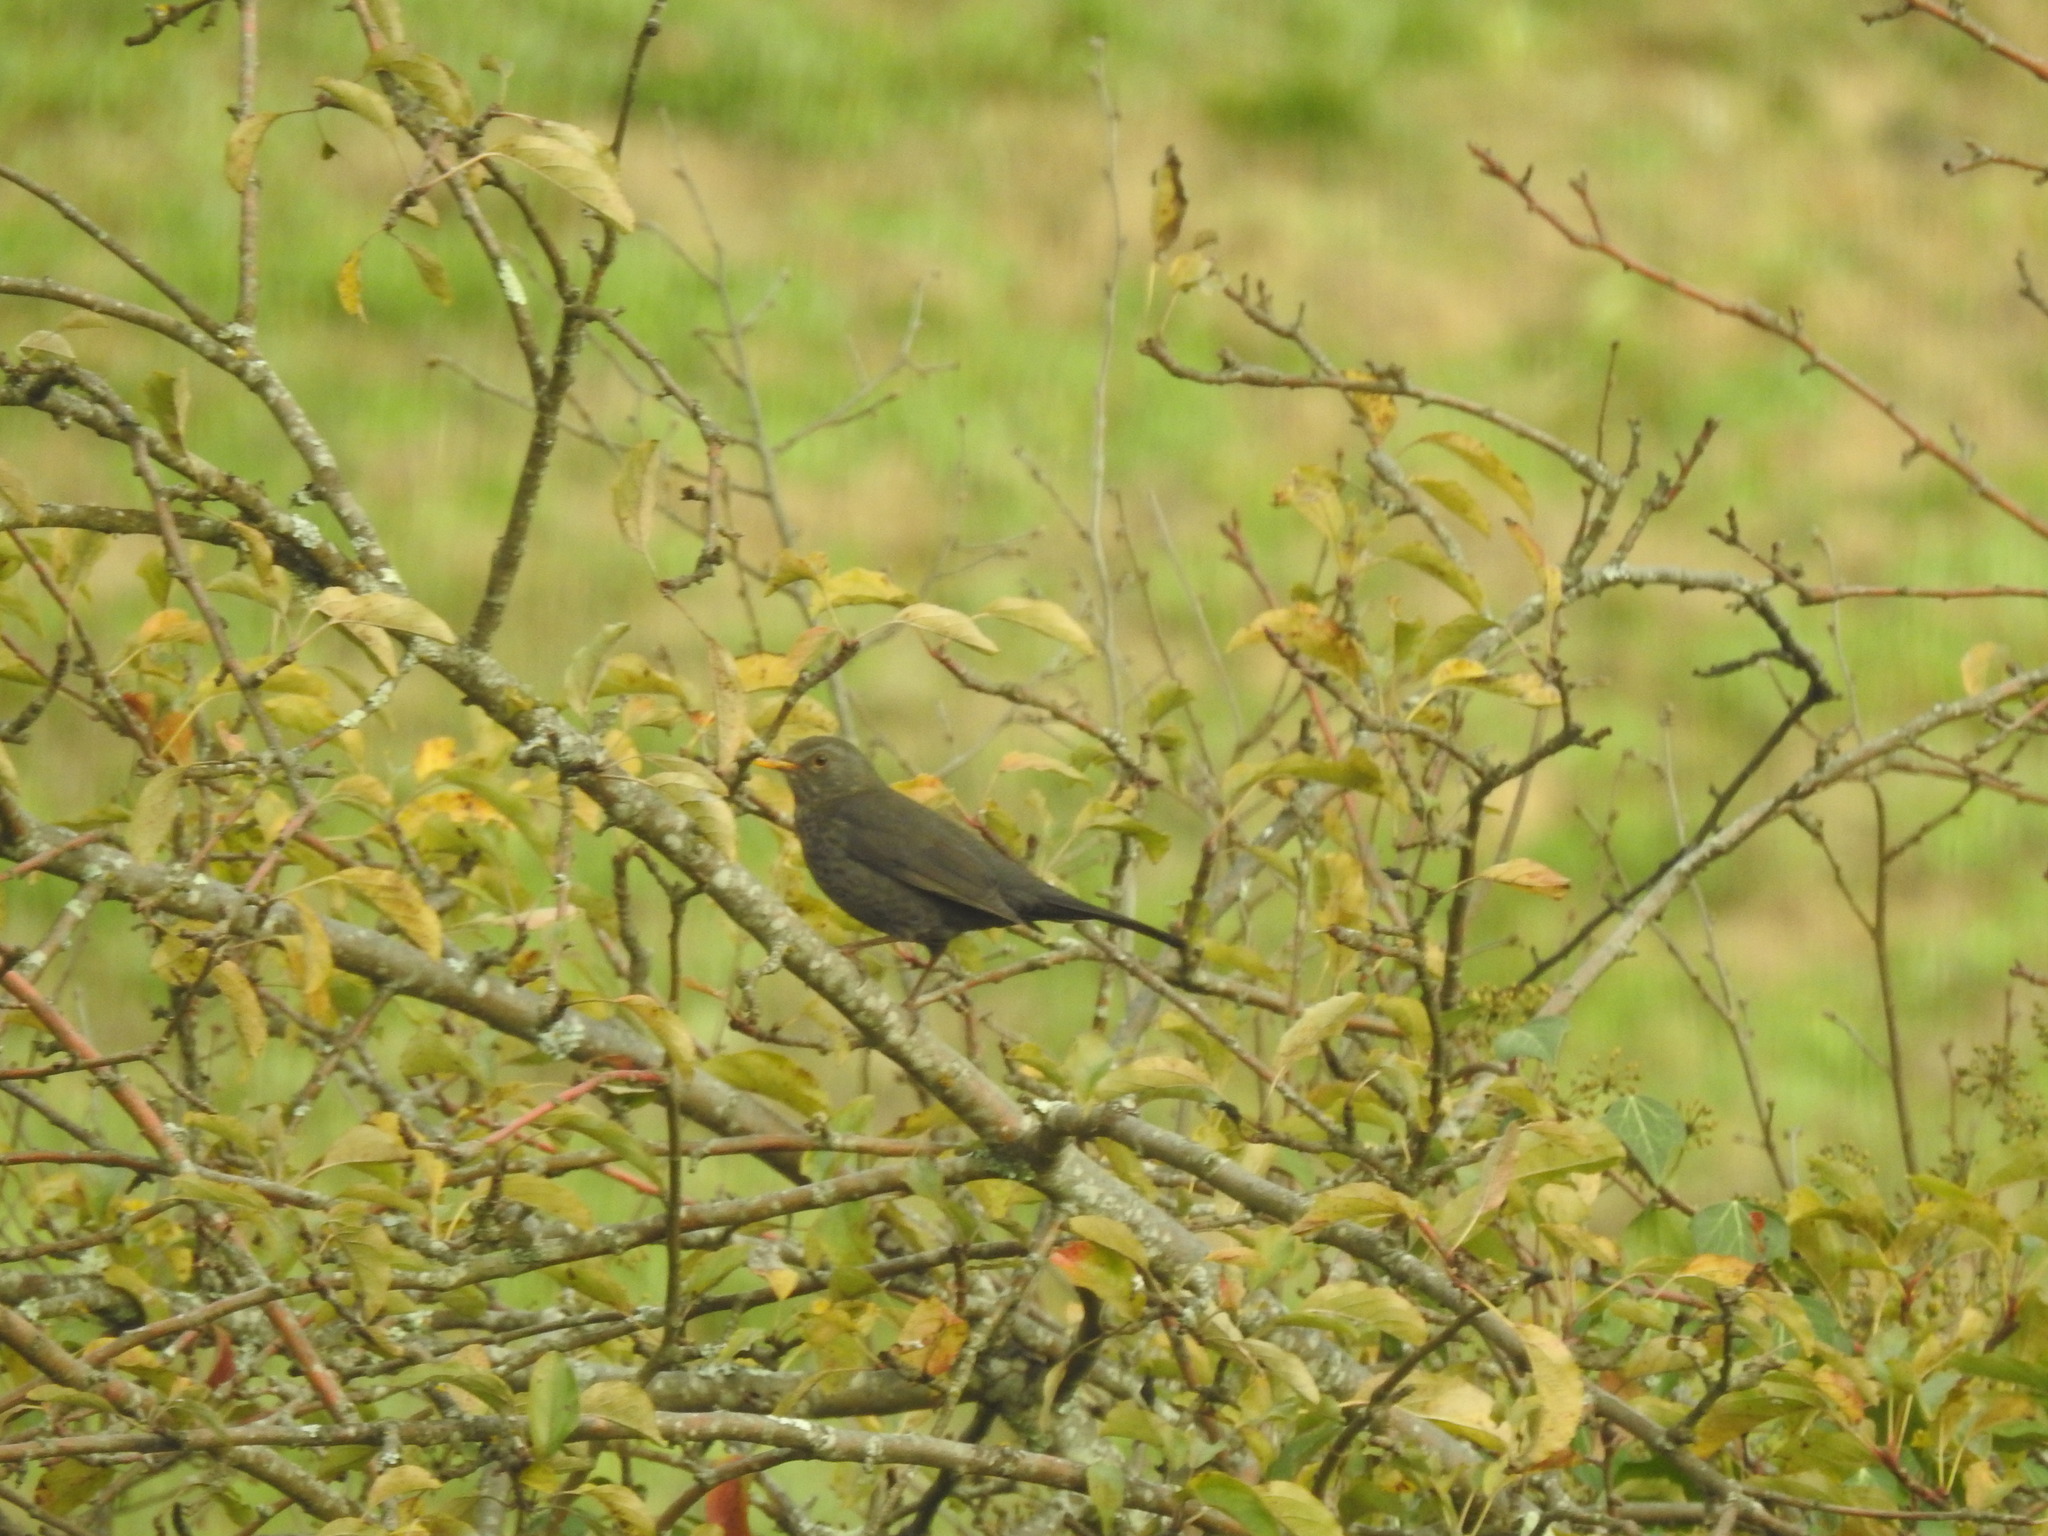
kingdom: Animalia
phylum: Chordata
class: Aves
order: Passeriformes
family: Turdidae
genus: Turdus
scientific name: Turdus merula
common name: Common blackbird
